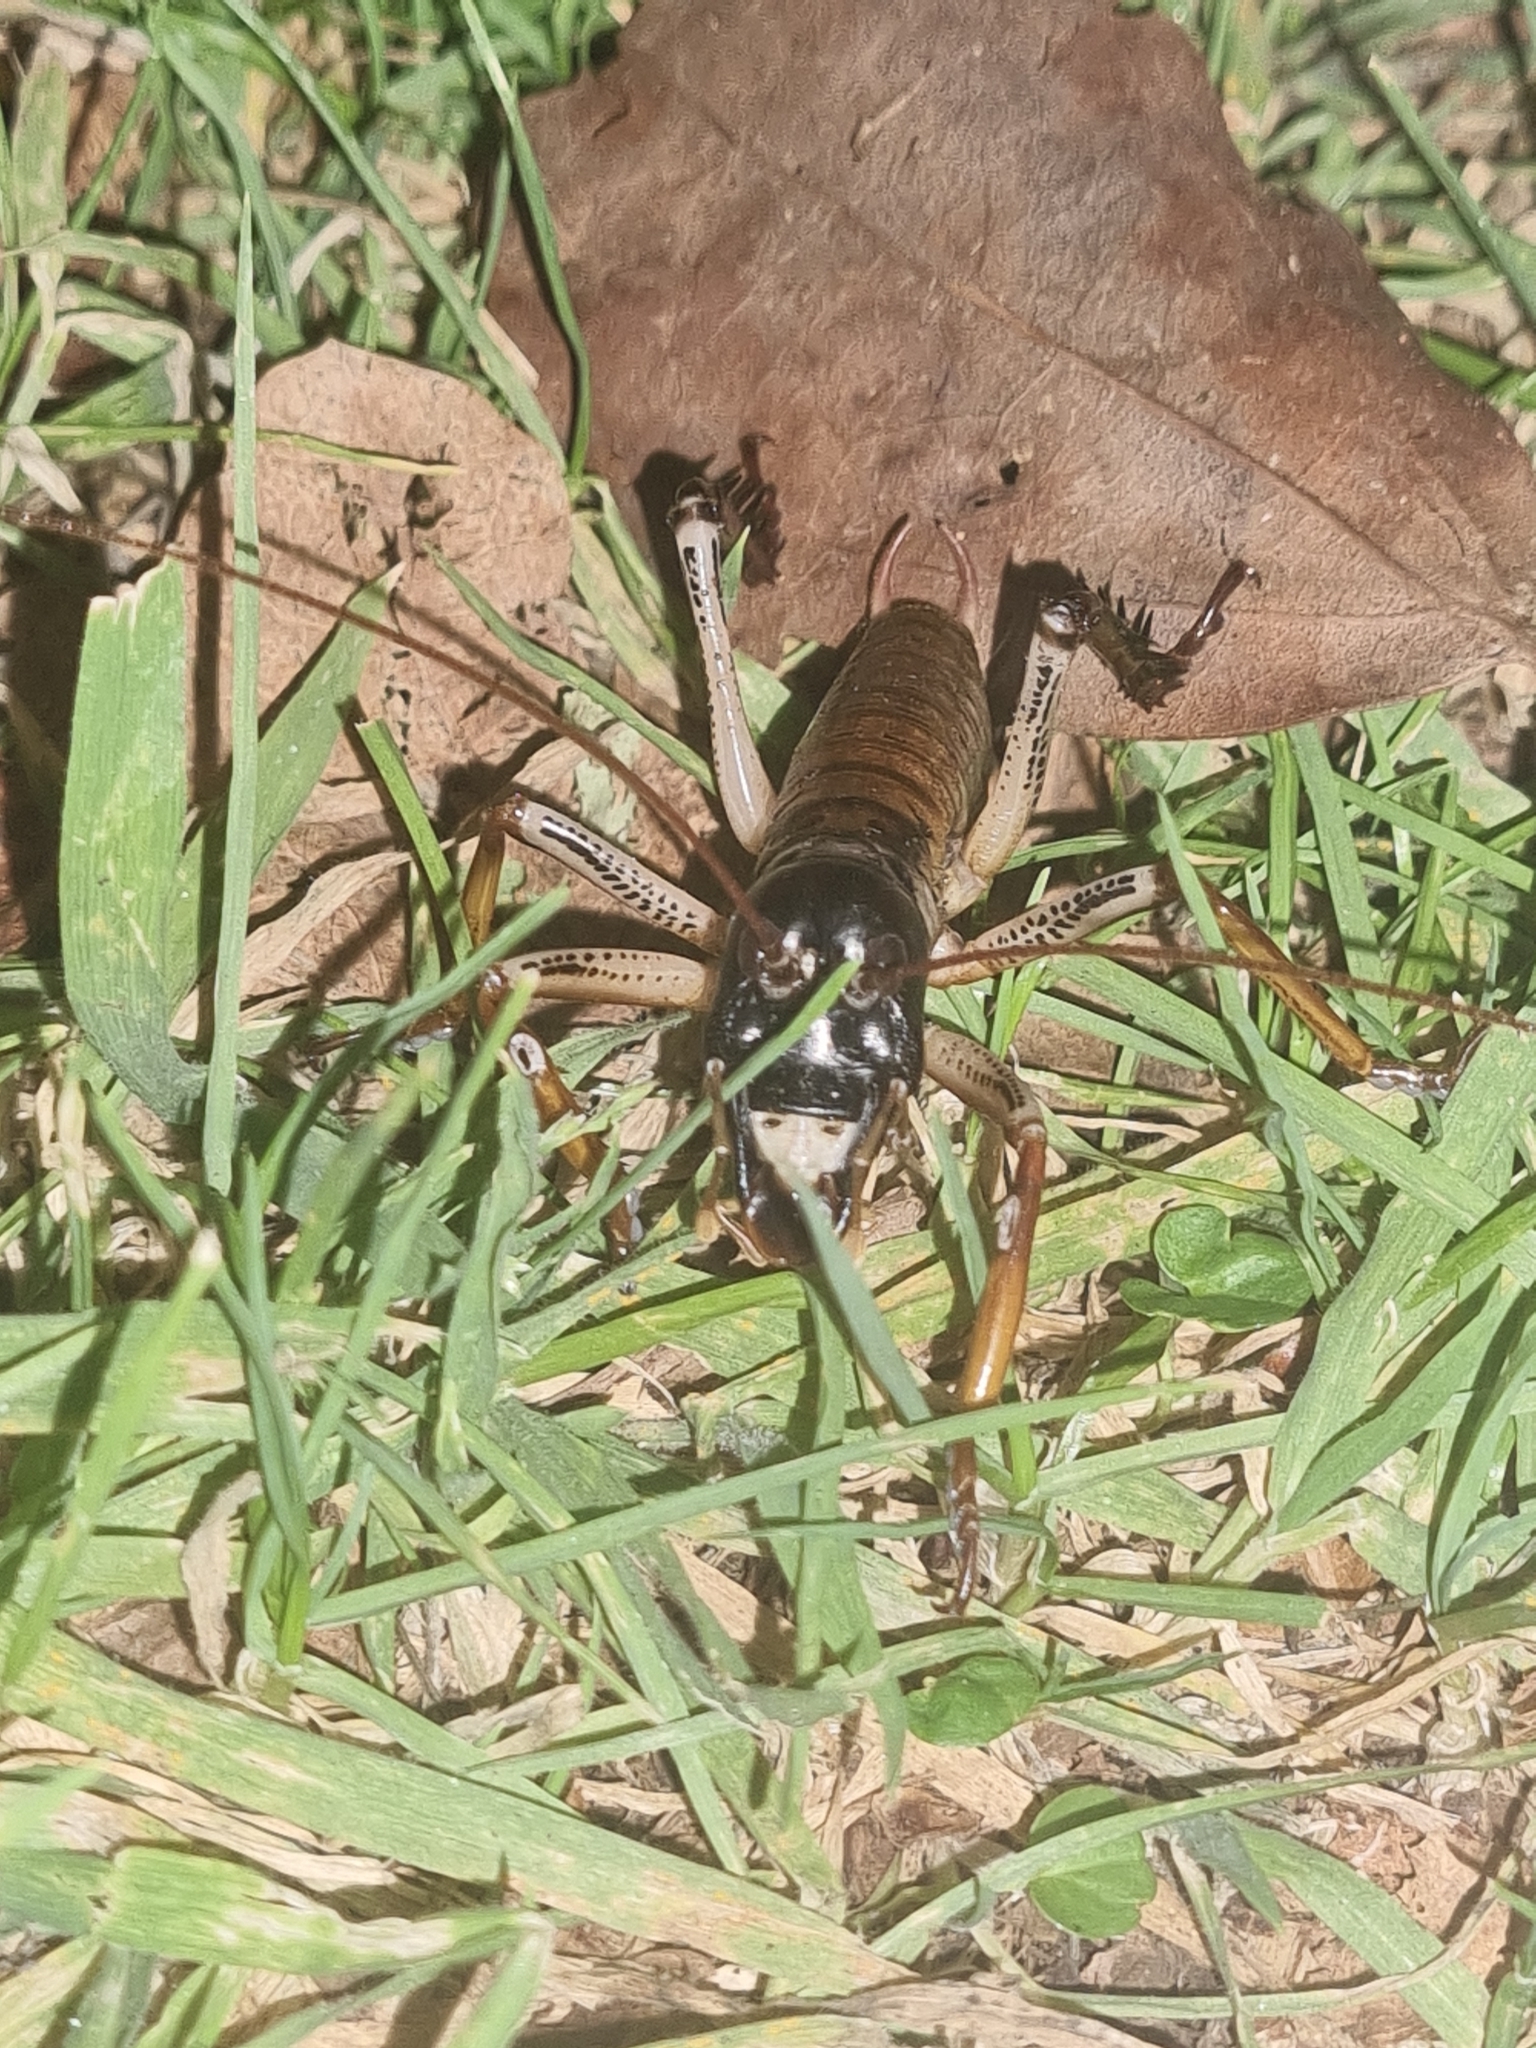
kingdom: Animalia
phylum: Arthropoda
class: Insecta
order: Orthoptera
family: Anostostomatidae
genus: Hemideina
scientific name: Hemideina thoracica
